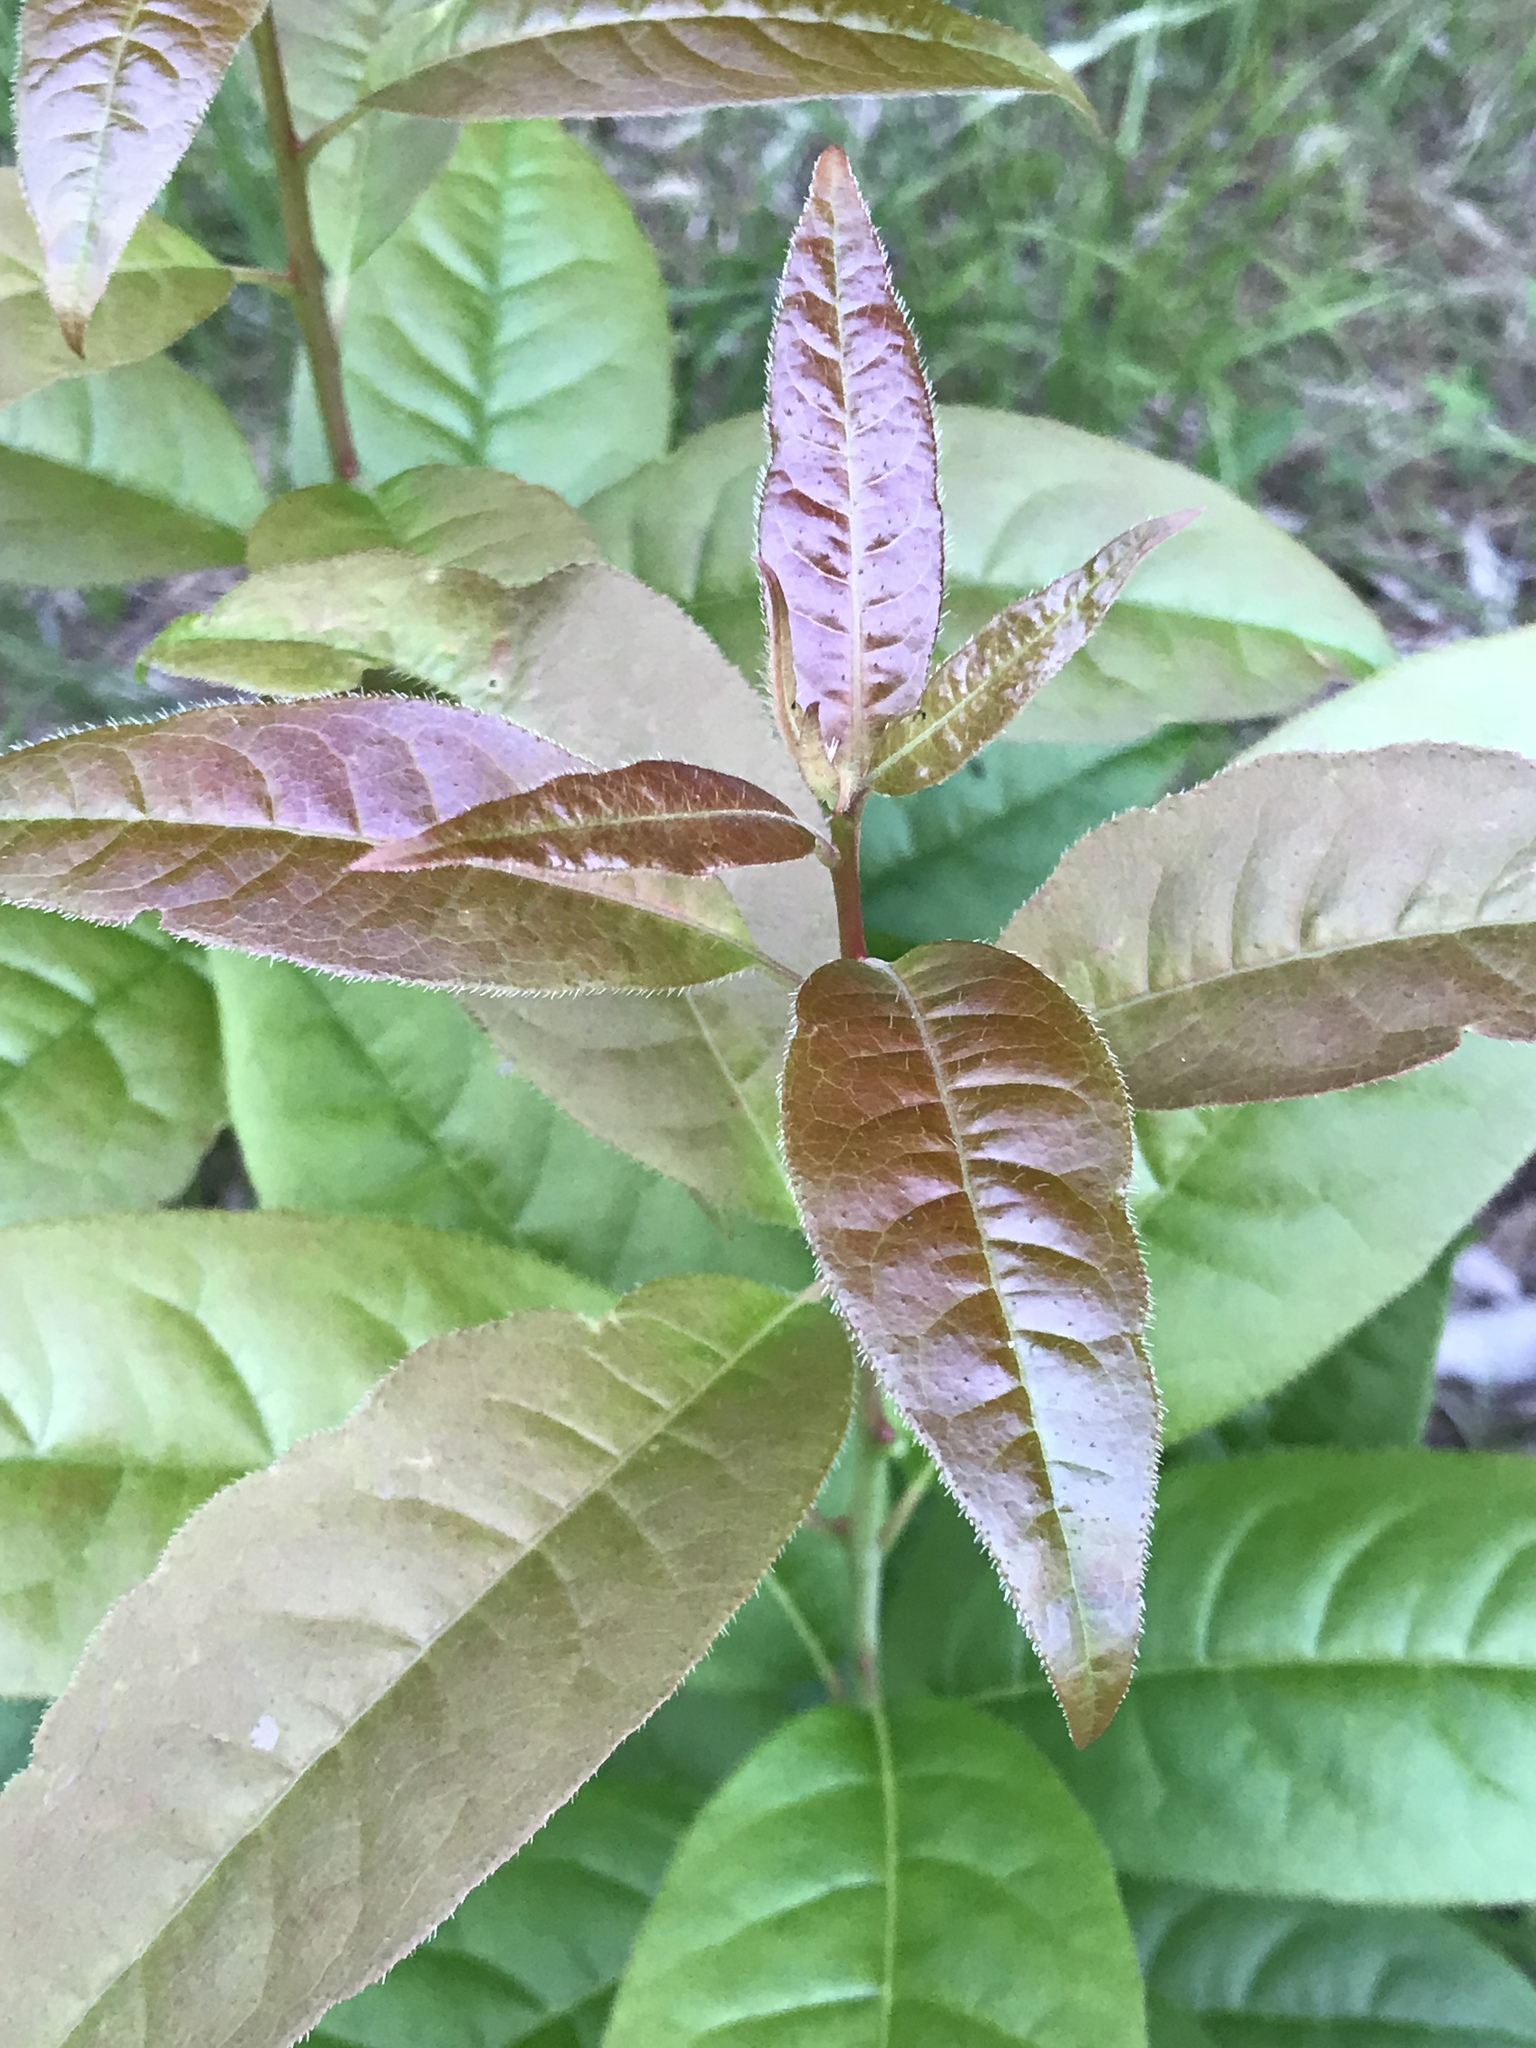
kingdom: Plantae
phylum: Tracheophyta
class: Magnoliopsida
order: Ericales
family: Ericaceae
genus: Oxydendrum
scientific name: Oxydendrum arboreum
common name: Sourwood
